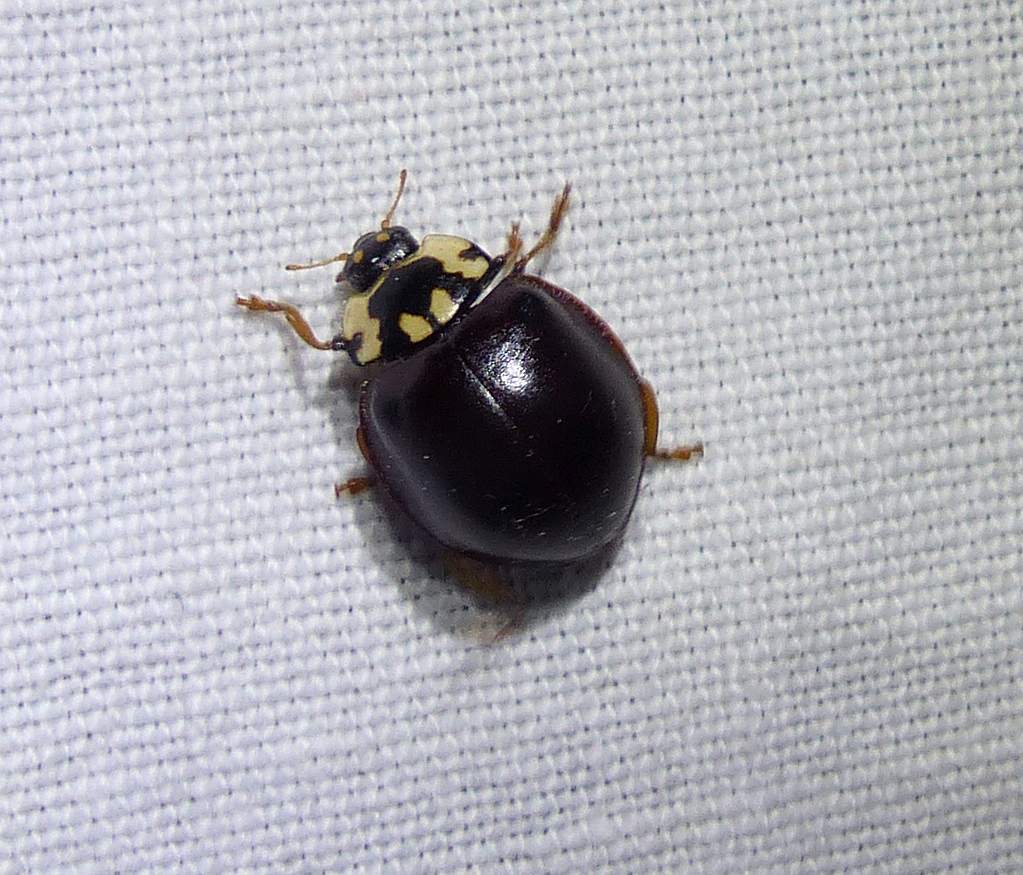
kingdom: Animalia
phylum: Arthropoda
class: Insecta
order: Coleoptera
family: Coccinellidae
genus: Anatis
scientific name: Anatis labiculata
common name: Fifteen-spotted lady beetle
